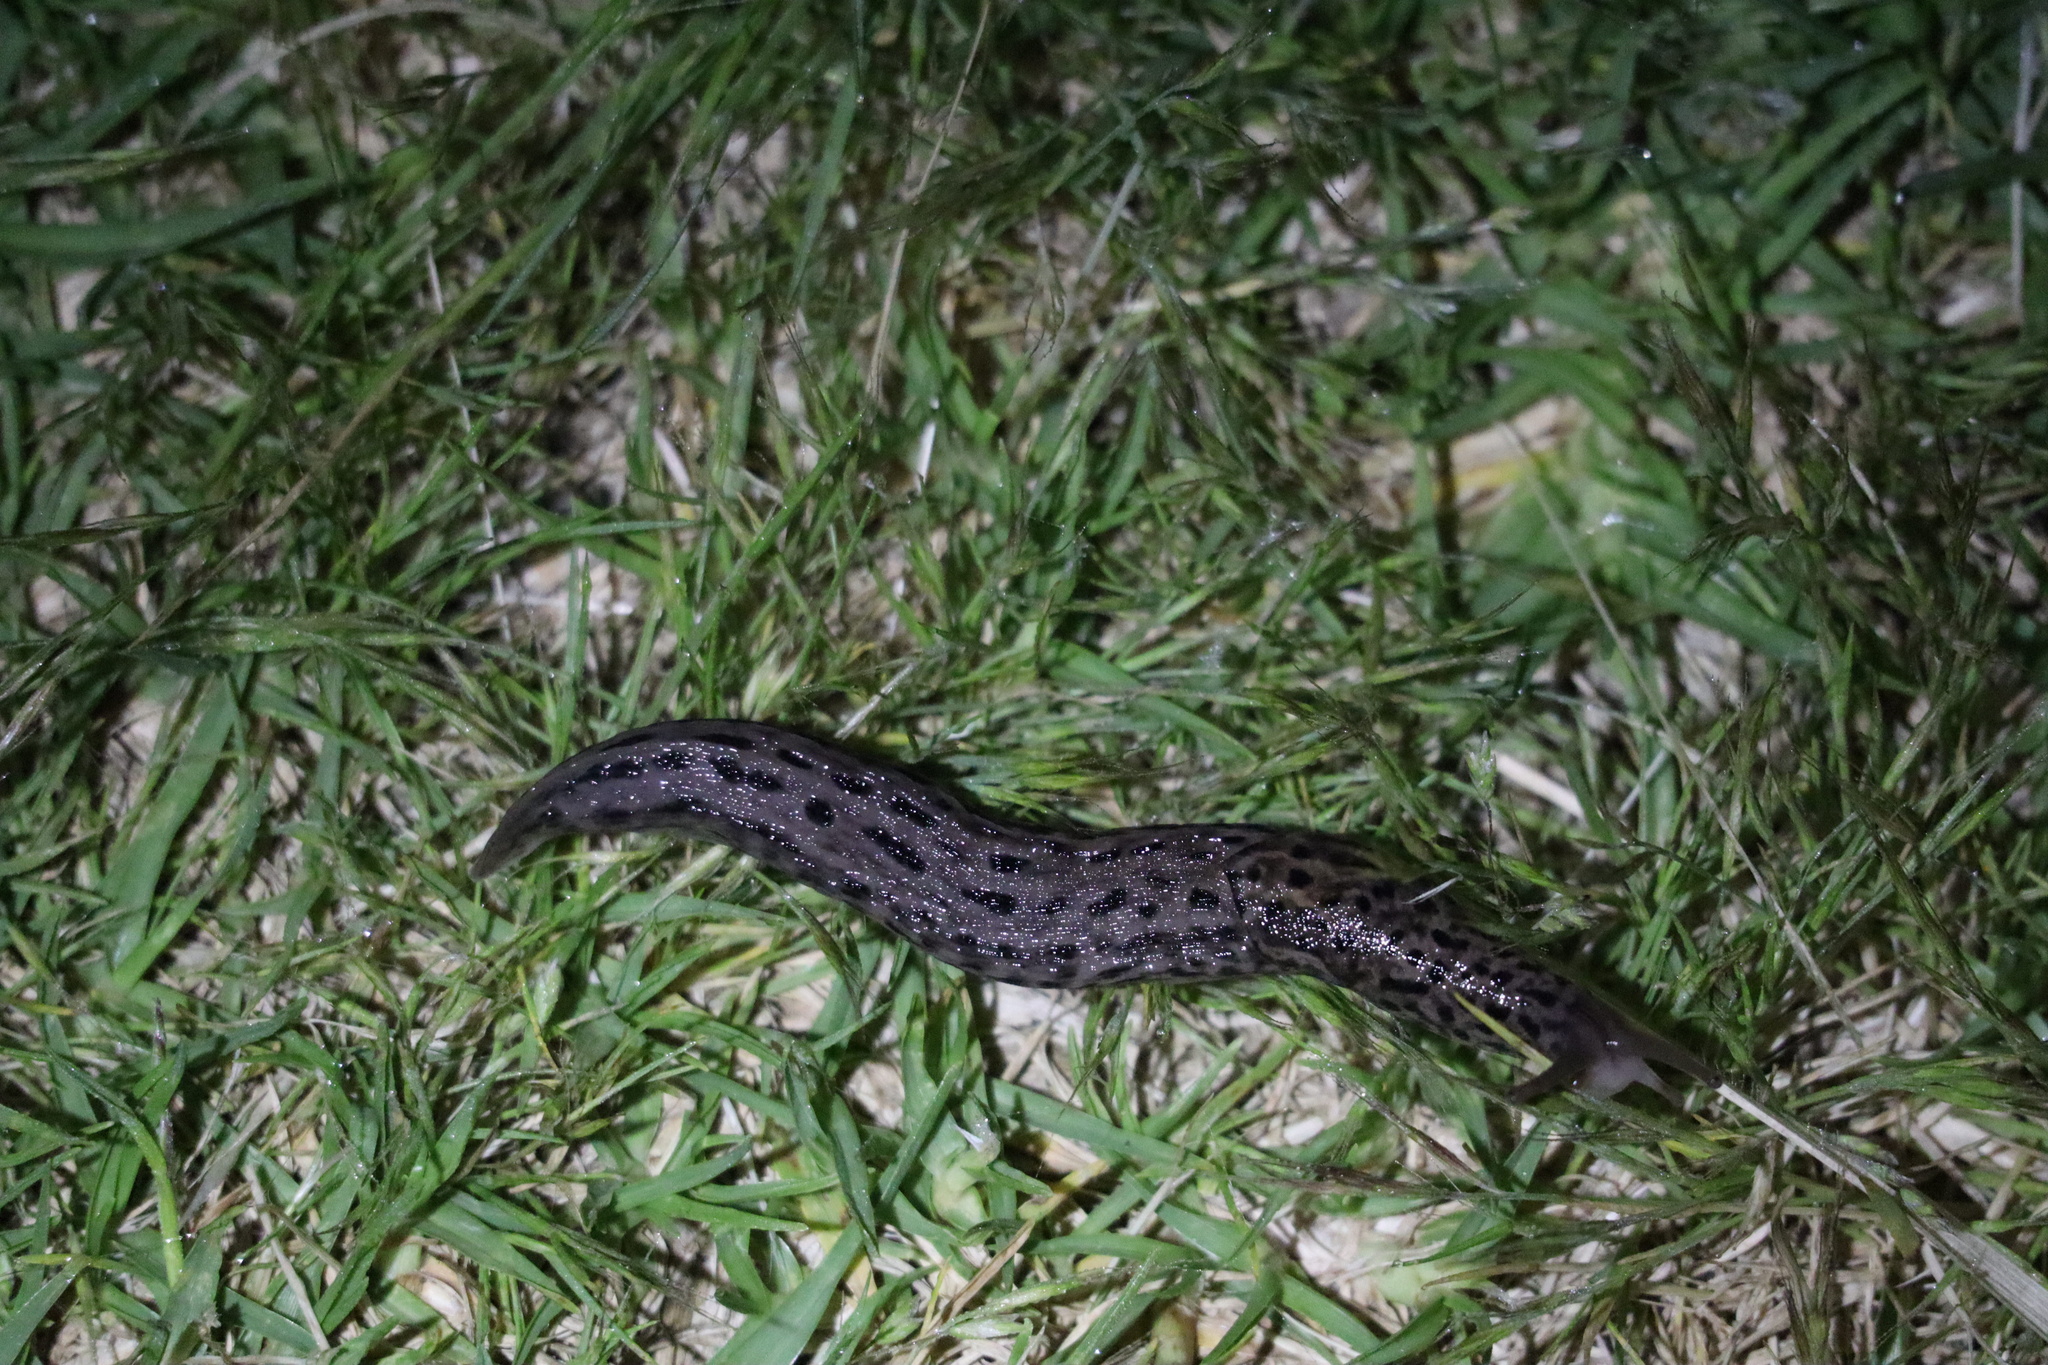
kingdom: Animalia
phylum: Mollusca
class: Gastropoda
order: Stylommatophora
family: Limacidae
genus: Limax
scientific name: Limax maximus
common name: Great grey slug
